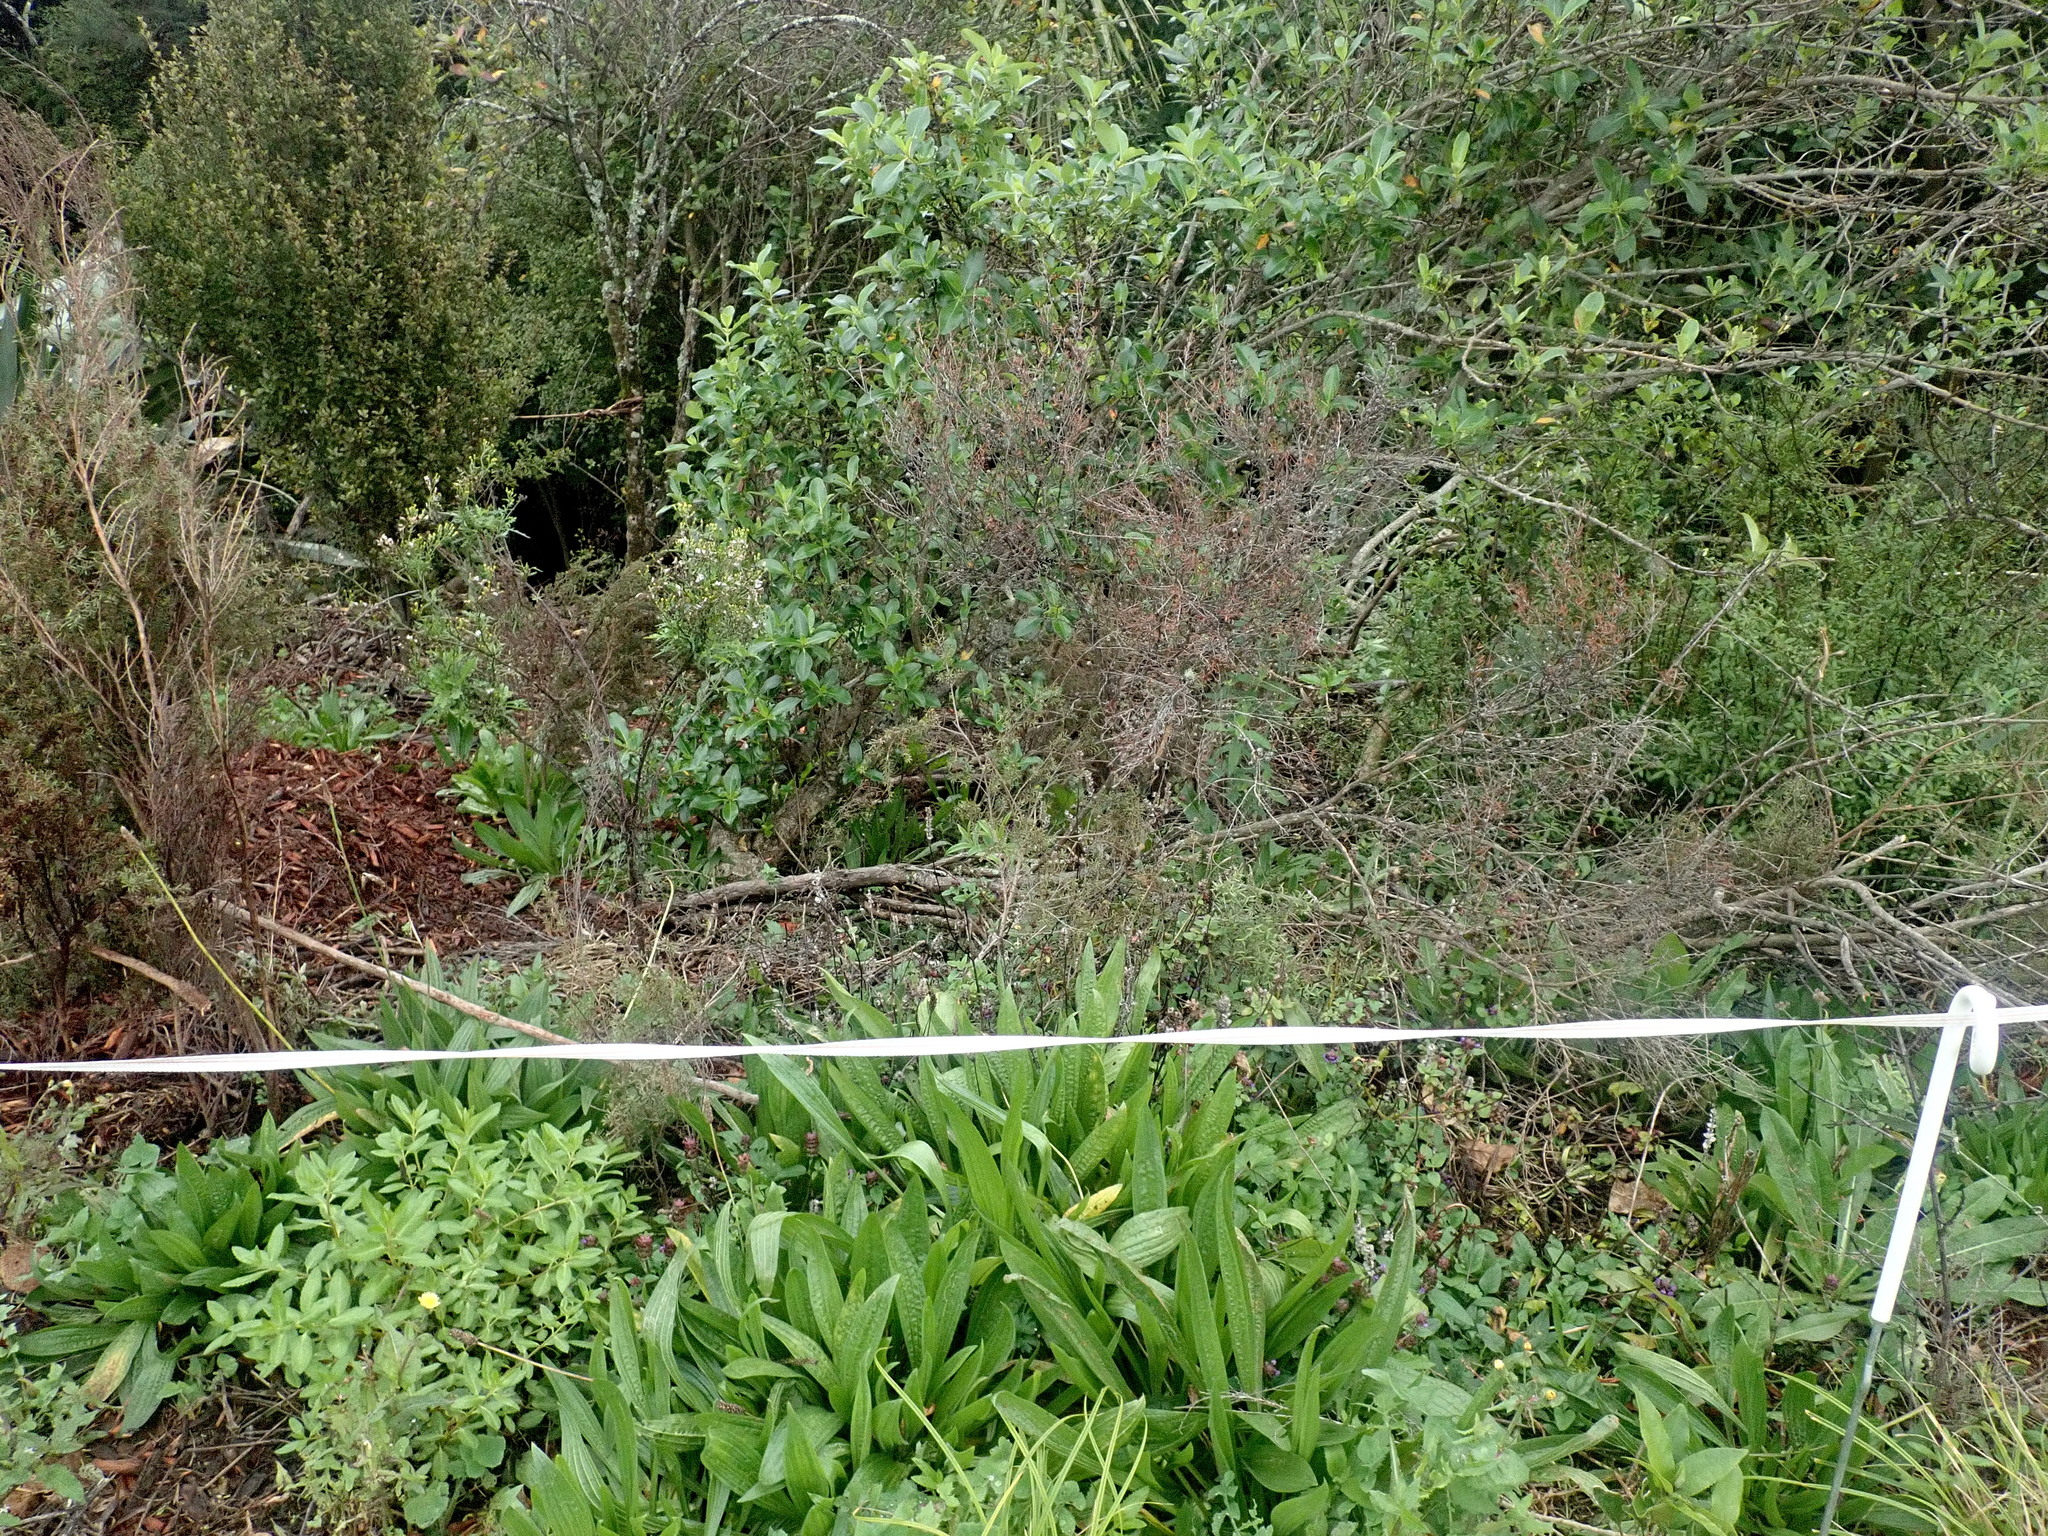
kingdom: Plantae
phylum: Tracheophyta
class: Magnoliopsida
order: Lamiales
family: Plantaginaceae
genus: Plantago
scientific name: Plantago lanceolata
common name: Ribwort plantain
